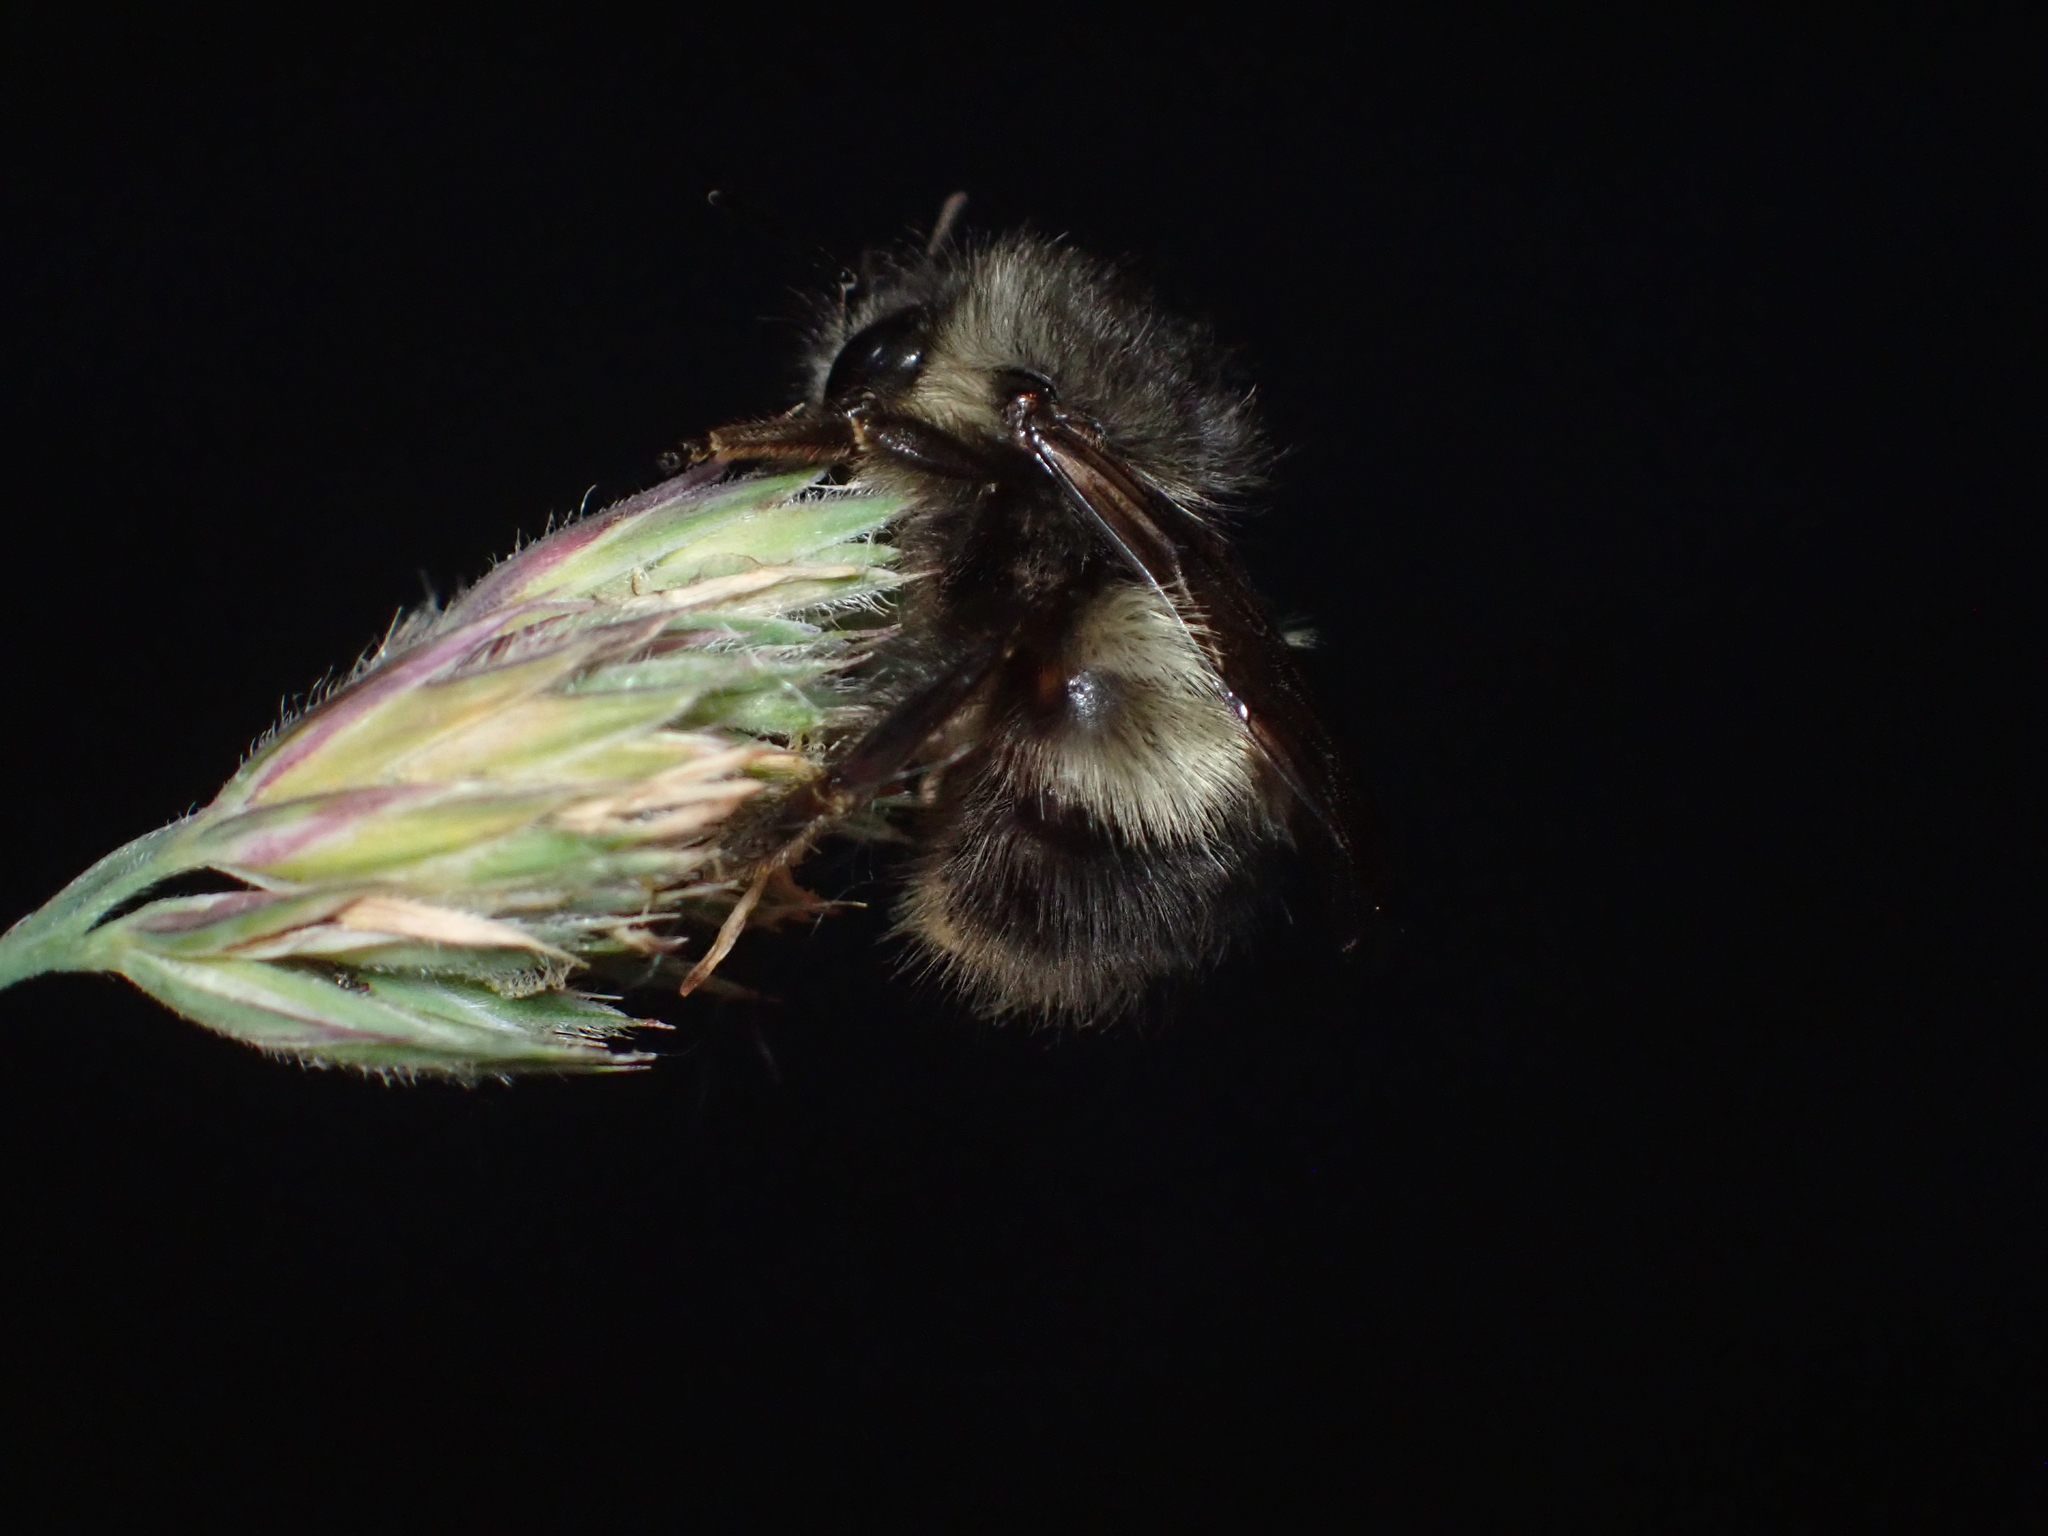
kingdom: Animalia
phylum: Arthropoda
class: Insecta
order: Hymenoptera
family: Apidae
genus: Bombus
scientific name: Bombus sitkensis
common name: Sitka bumble bee
